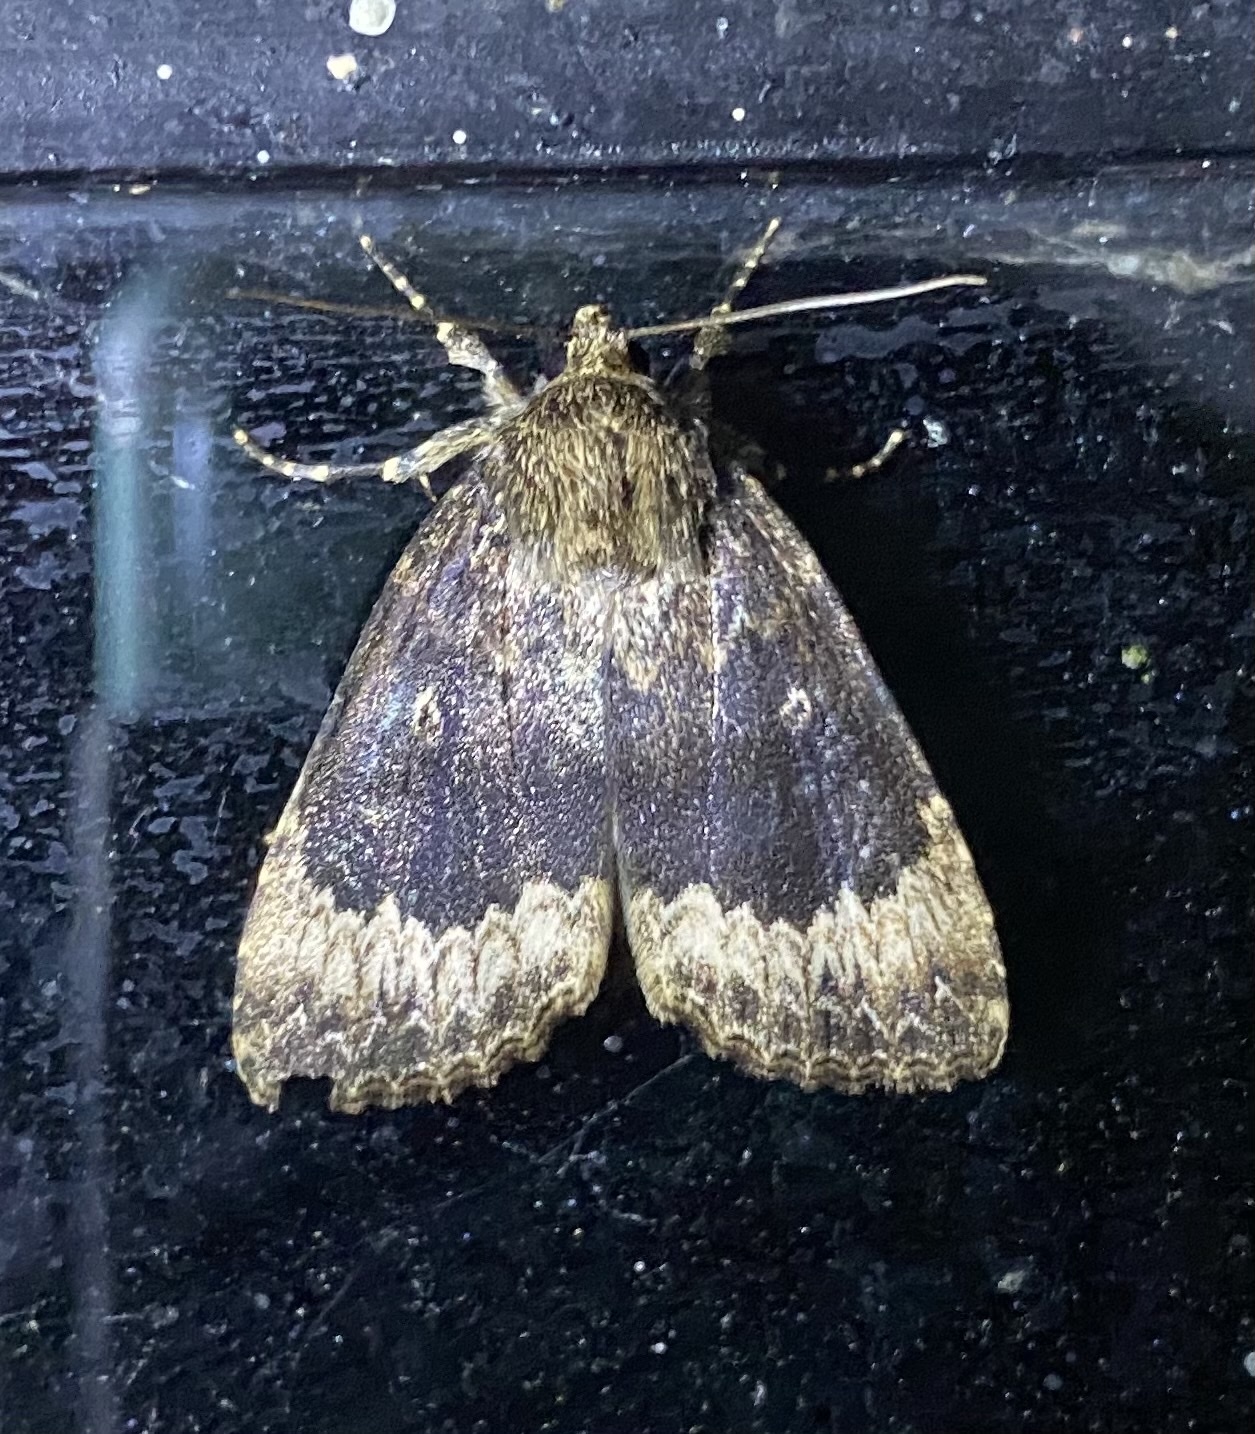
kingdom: Animalia
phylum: Arthropoda
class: Insecta
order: Lepidoptera
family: Noctuidae
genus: Amphipyra
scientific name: Amphipyra perflua
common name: Larger pale-tipped black moth
